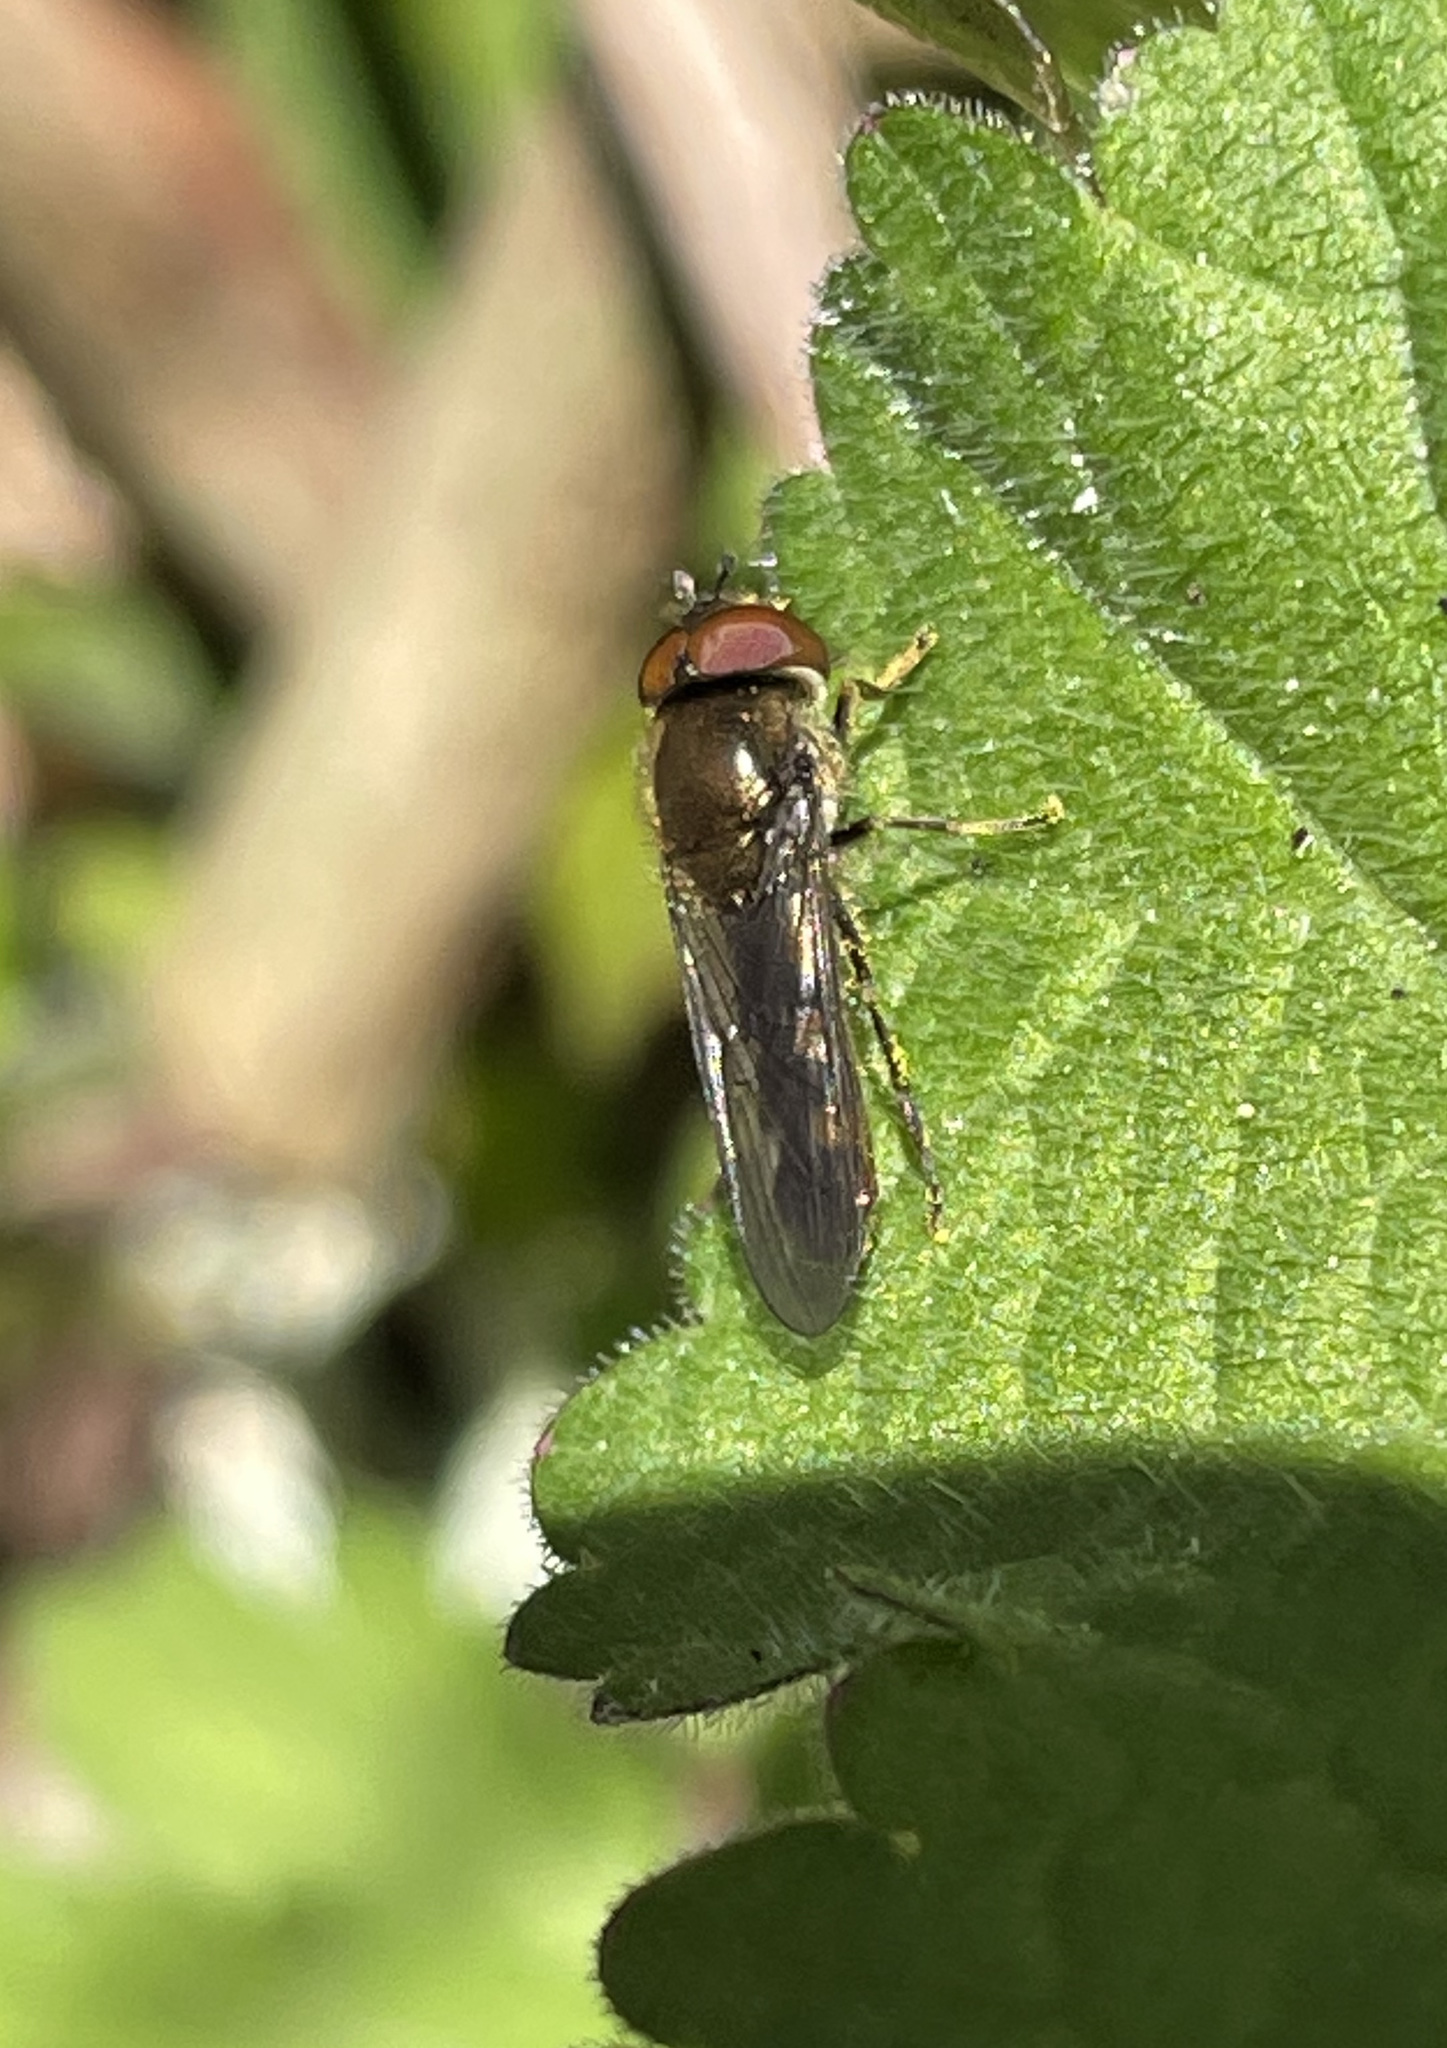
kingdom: Animalia
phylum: Arthropoda
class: Insecta
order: Diptera
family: Syrphidae
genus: Platycheirus
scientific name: Platycheirus
